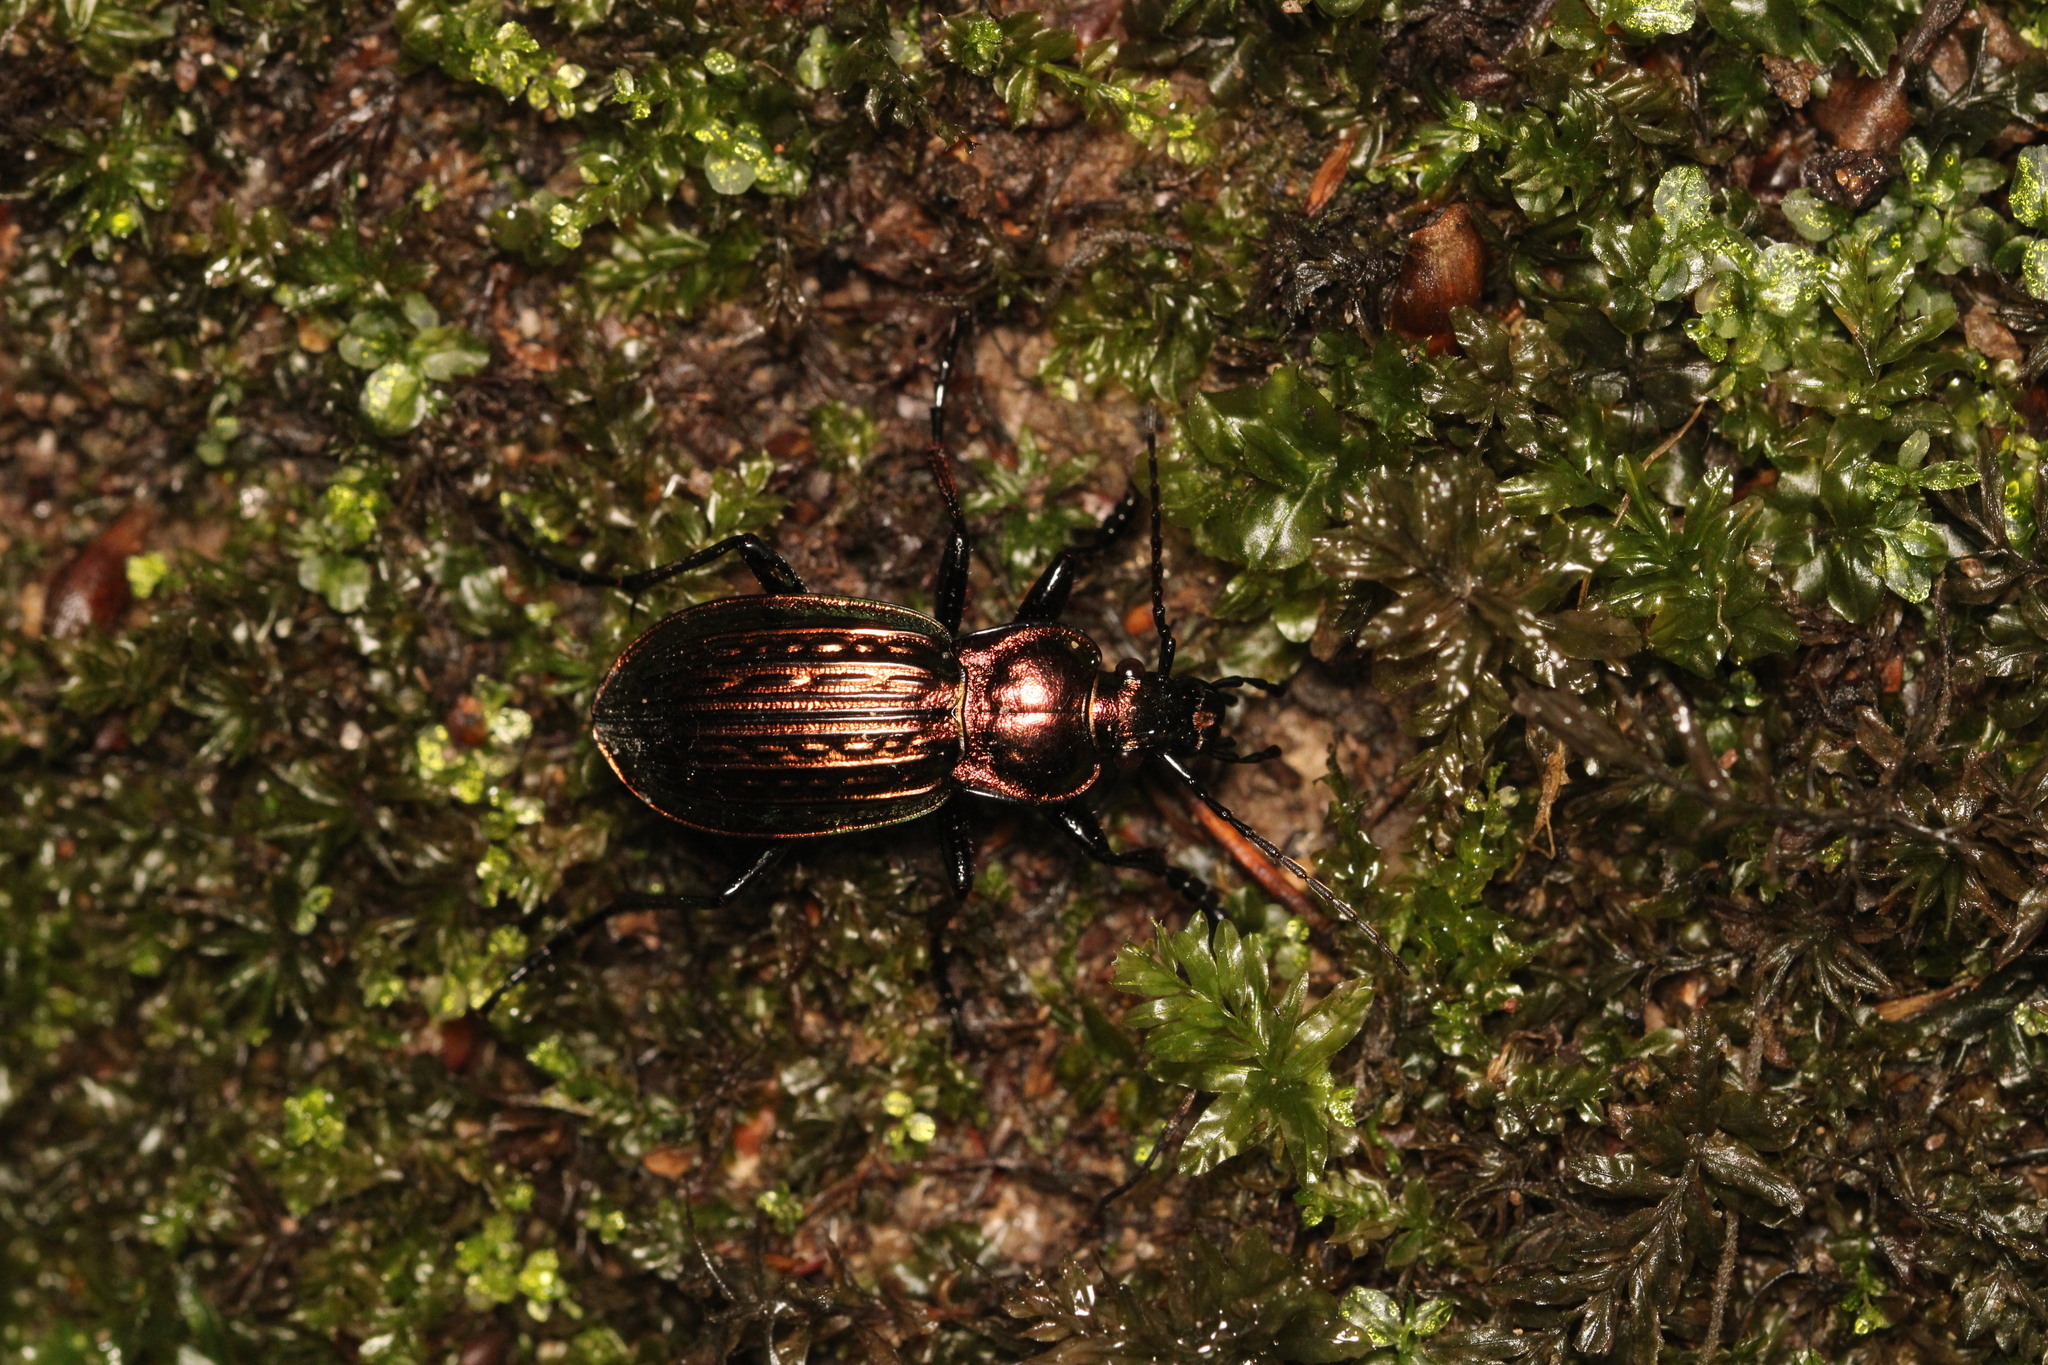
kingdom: Animalia
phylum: Arthropoda
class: Insecta
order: Coleoptera
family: Carabidae
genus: Carabus
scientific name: Carabus ulrichii
